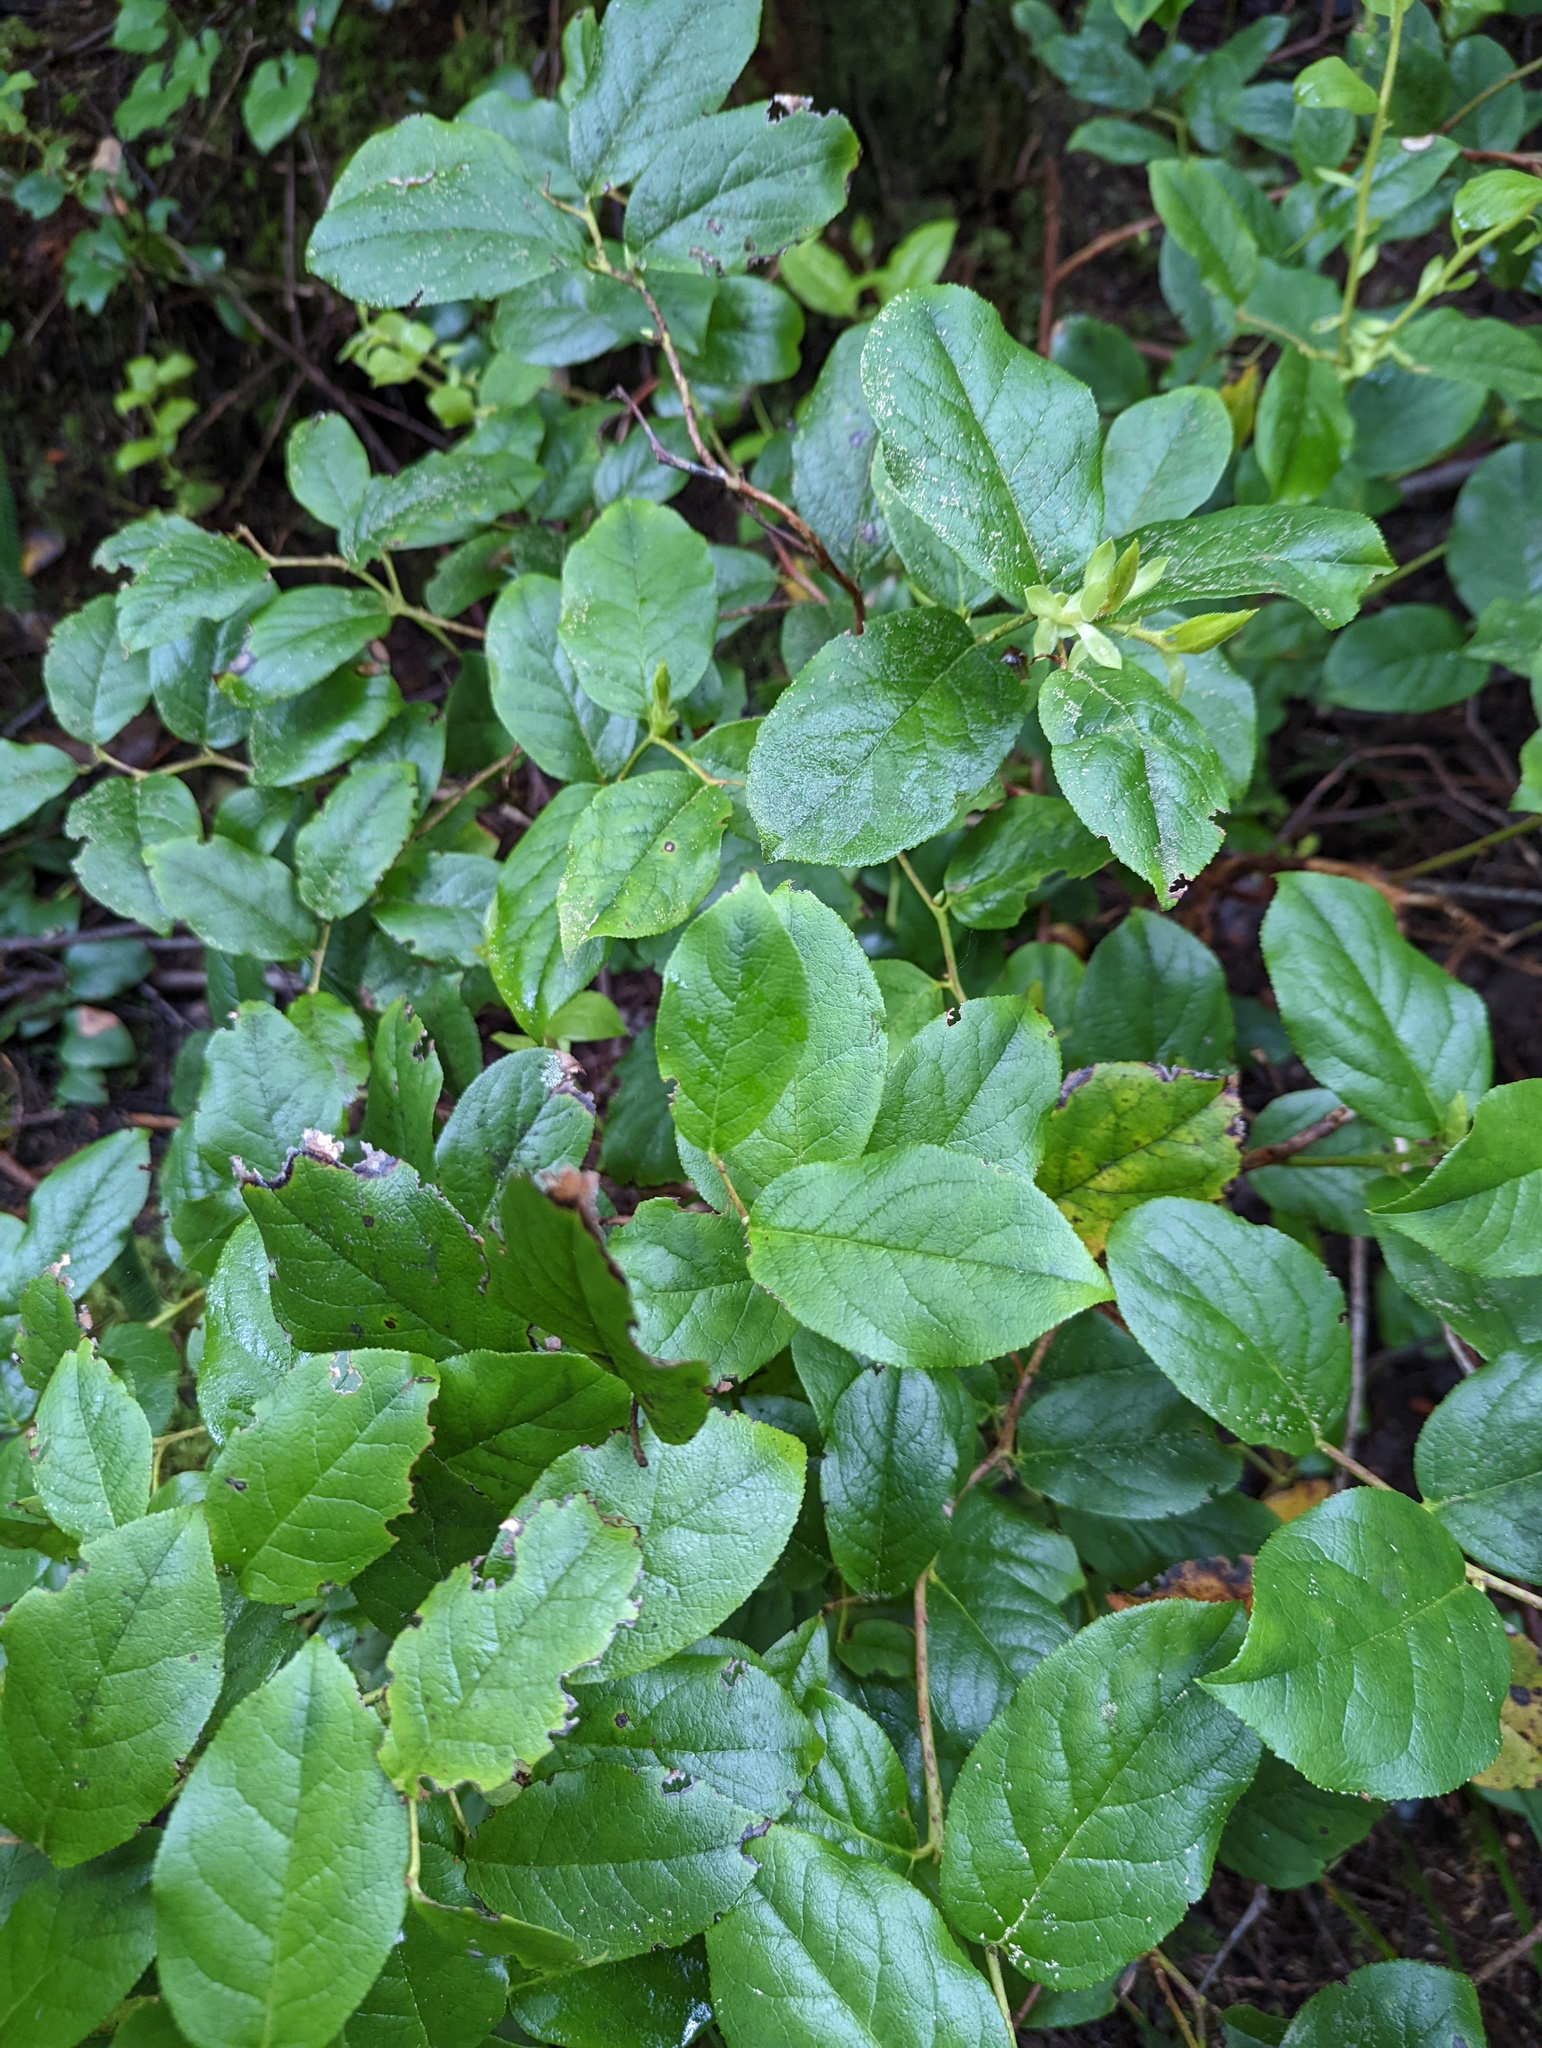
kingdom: Plantae
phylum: Tracheophyta
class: Magnoliopsida
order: Ericales
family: Ericaceae
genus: Gaultheria
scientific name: Gaultheria shallon
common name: Shallon
